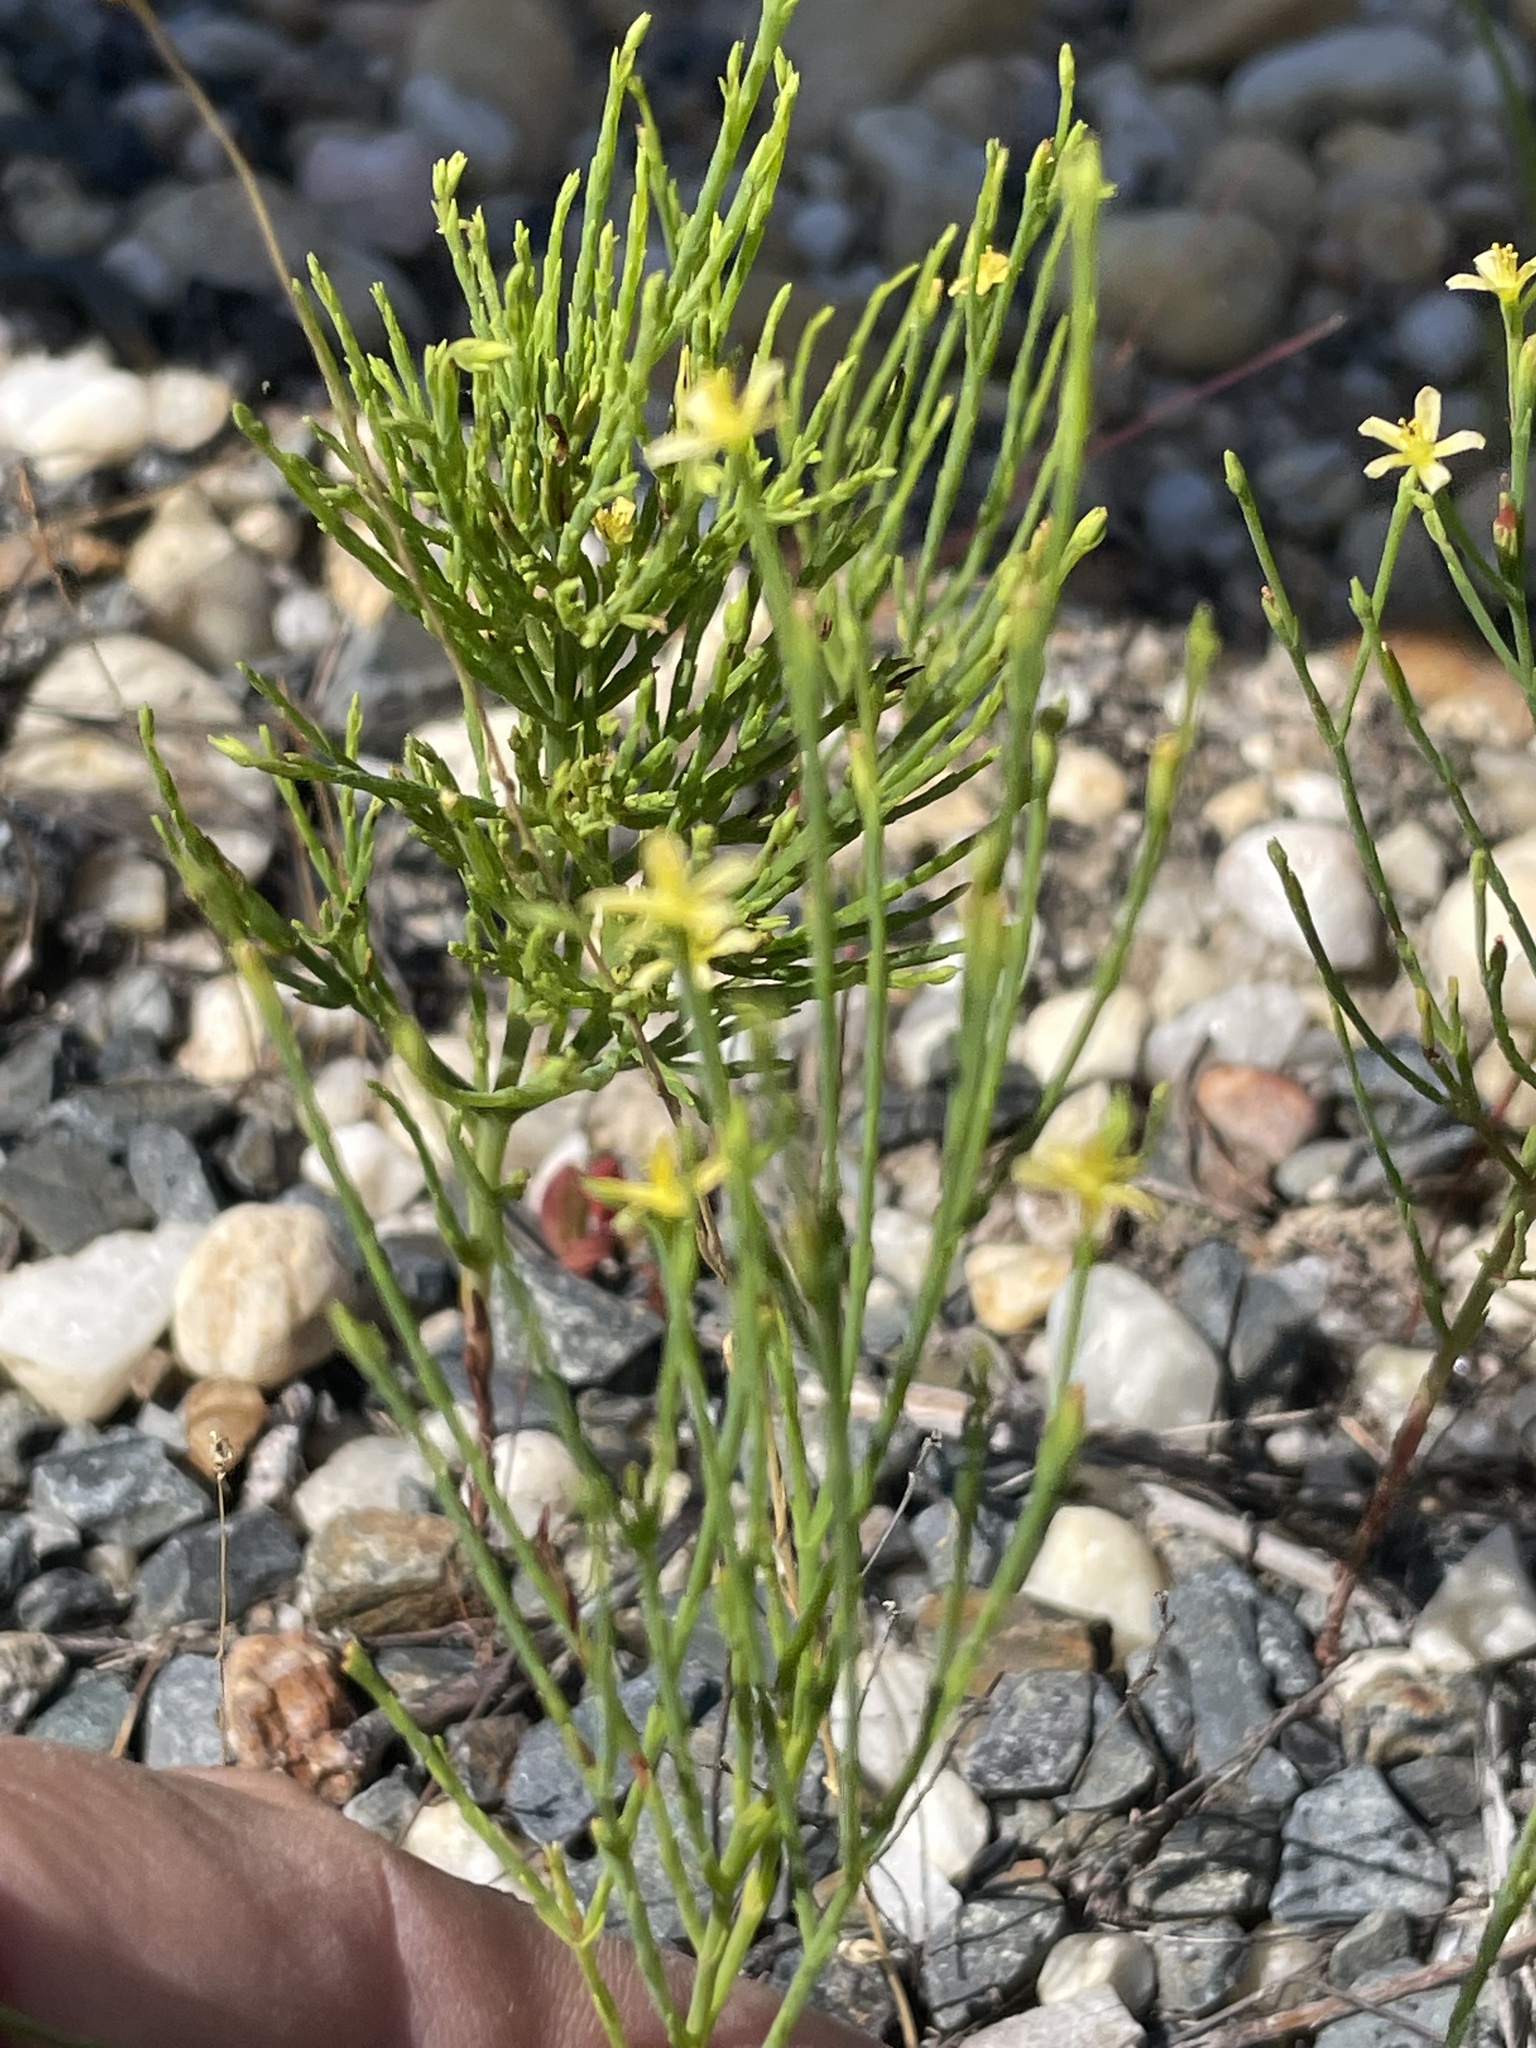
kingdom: Plantae
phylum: Tracheophyta
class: Magnoliopsida
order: Malpighiales
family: Hypericaceae
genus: Hypericum
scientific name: Hypericum gentianoides
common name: Gentian-leaved st. john's-wort
